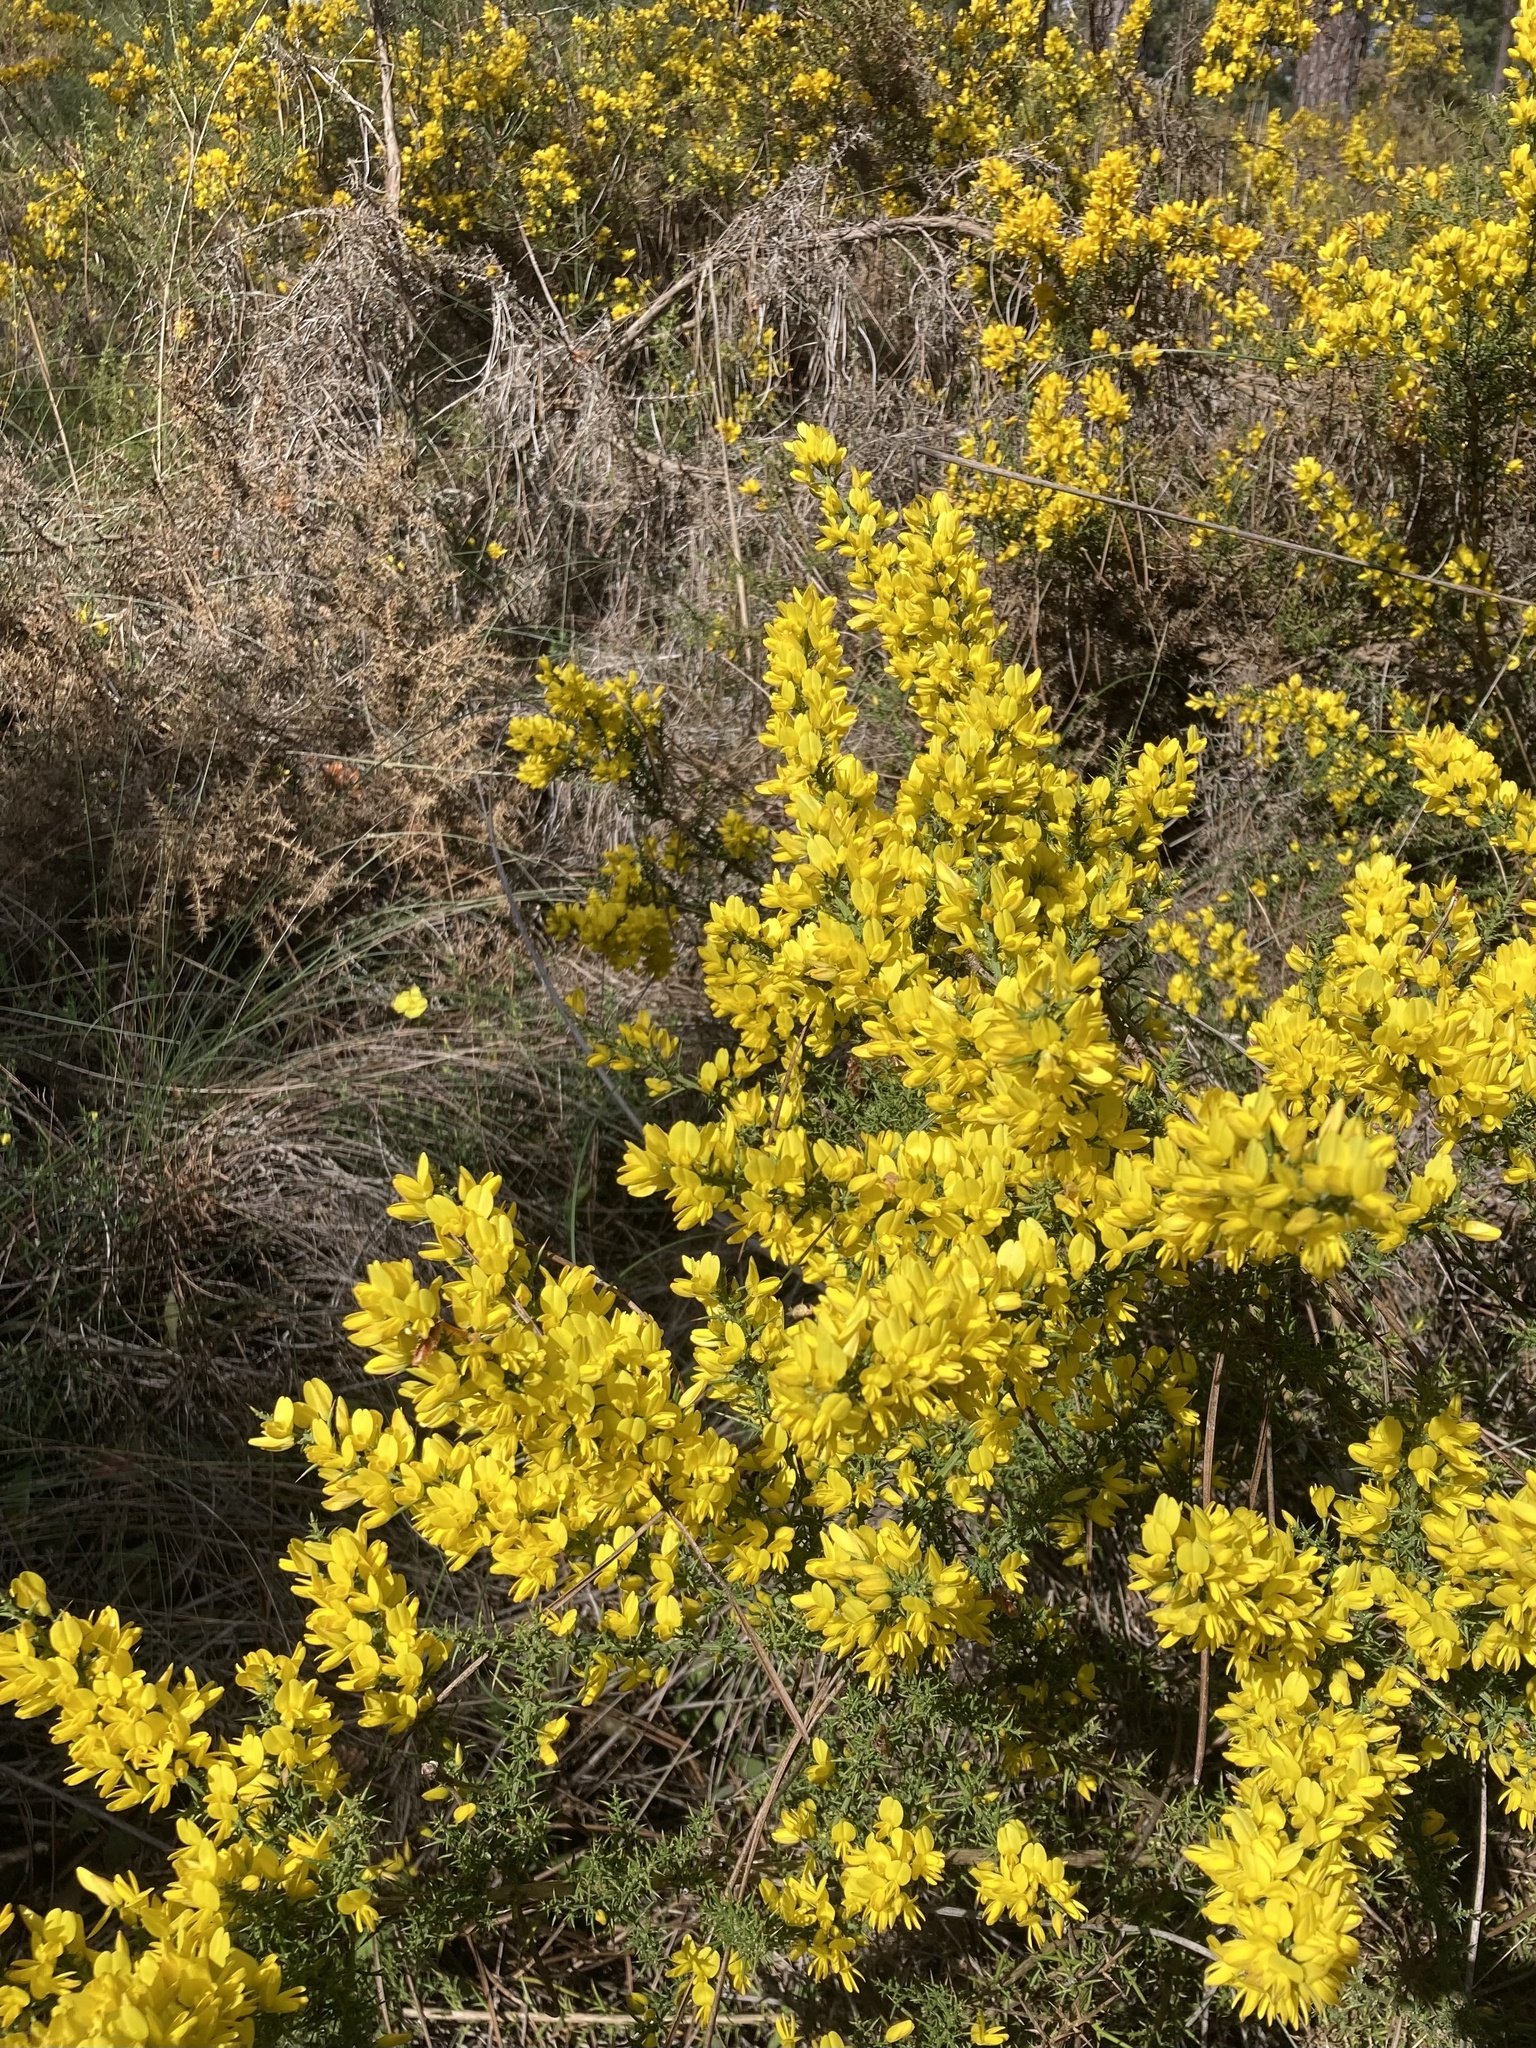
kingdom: Plantae
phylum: Tracheophyta
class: Magnoliopsida
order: Fabales
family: Fabaceae
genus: Ulex
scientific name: Ulex australis
